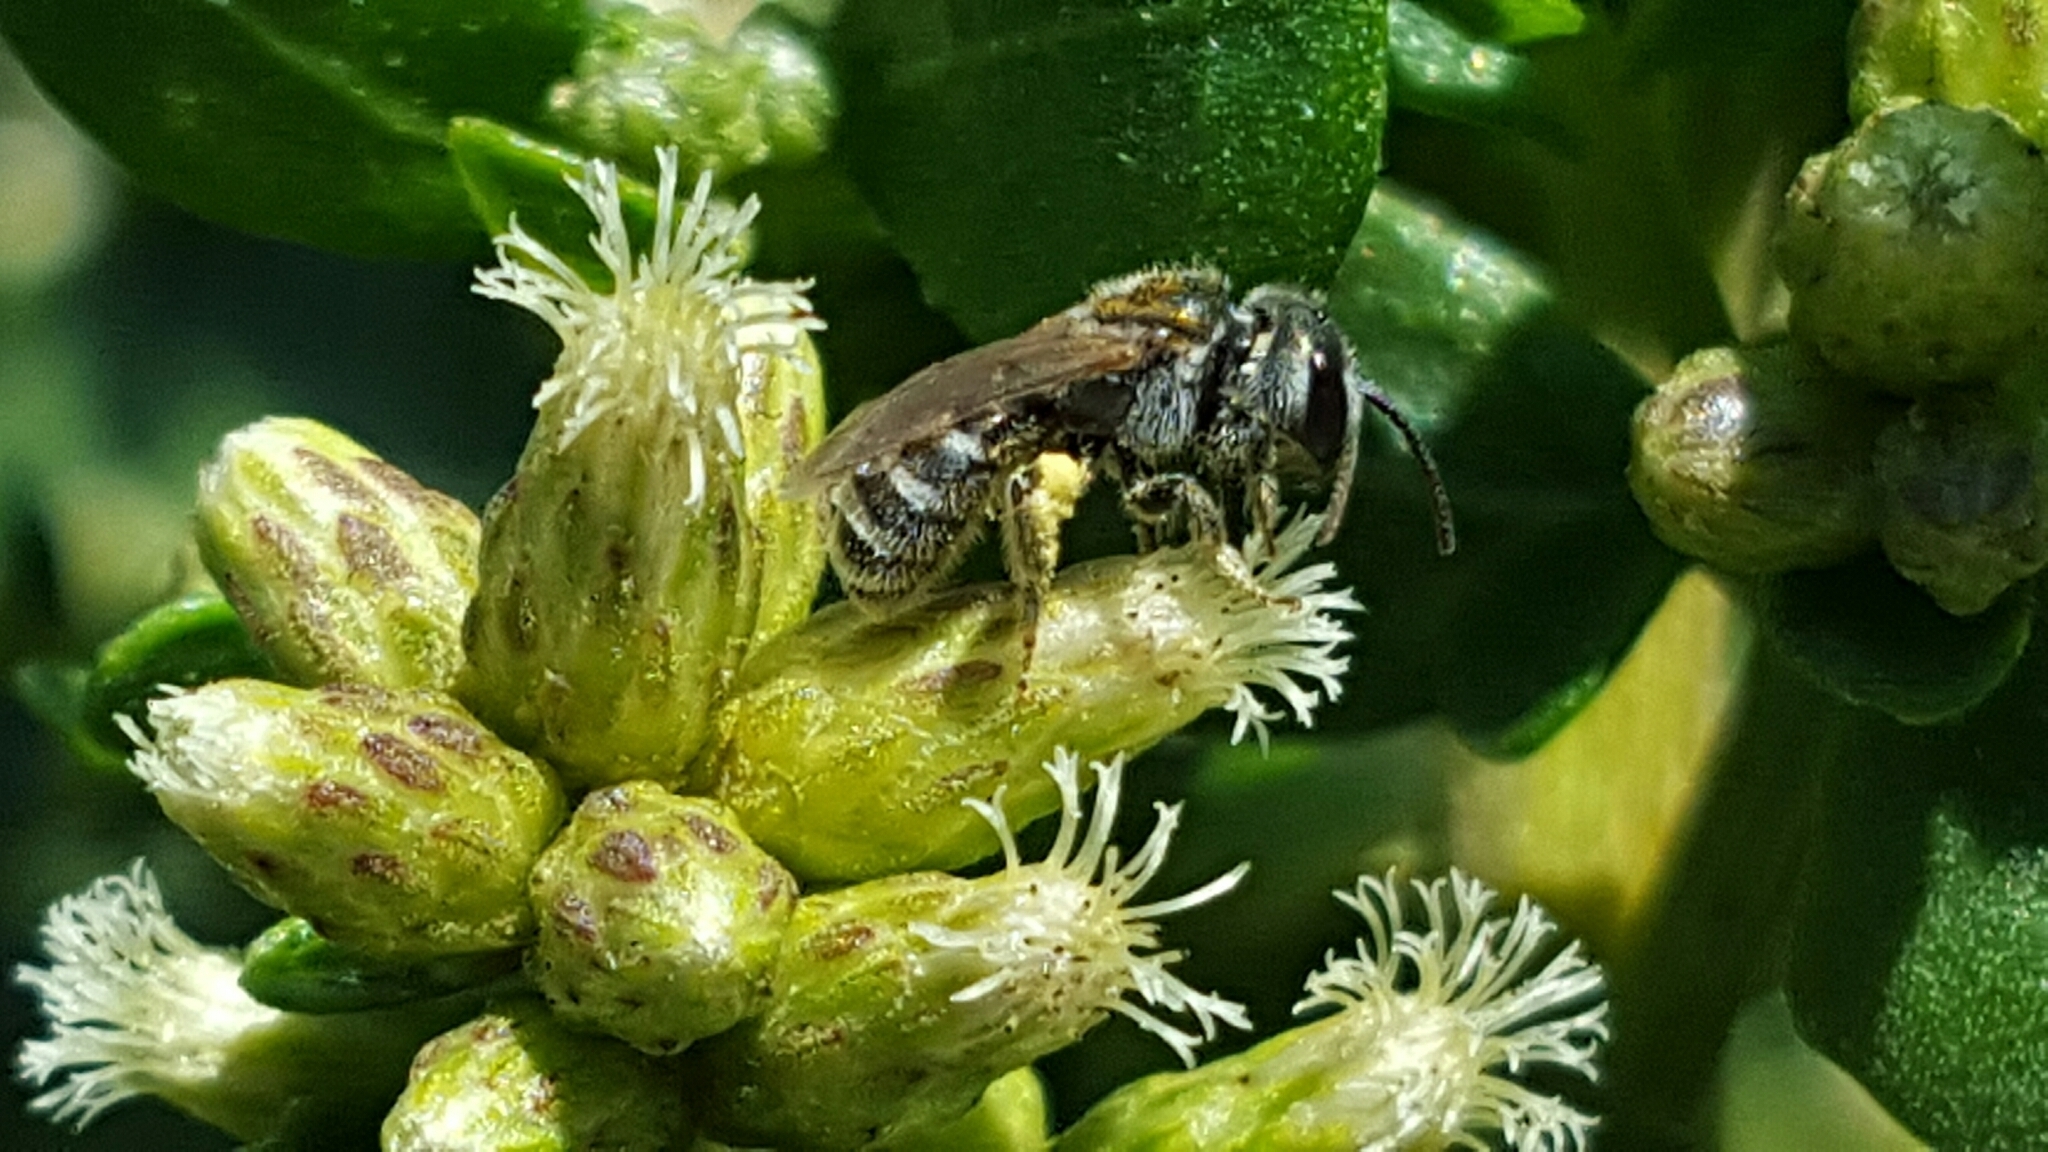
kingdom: Animalia
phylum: Arthropoda
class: Insecta
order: Hymenoptera
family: Halictidae
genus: Halictus
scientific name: Halictus
